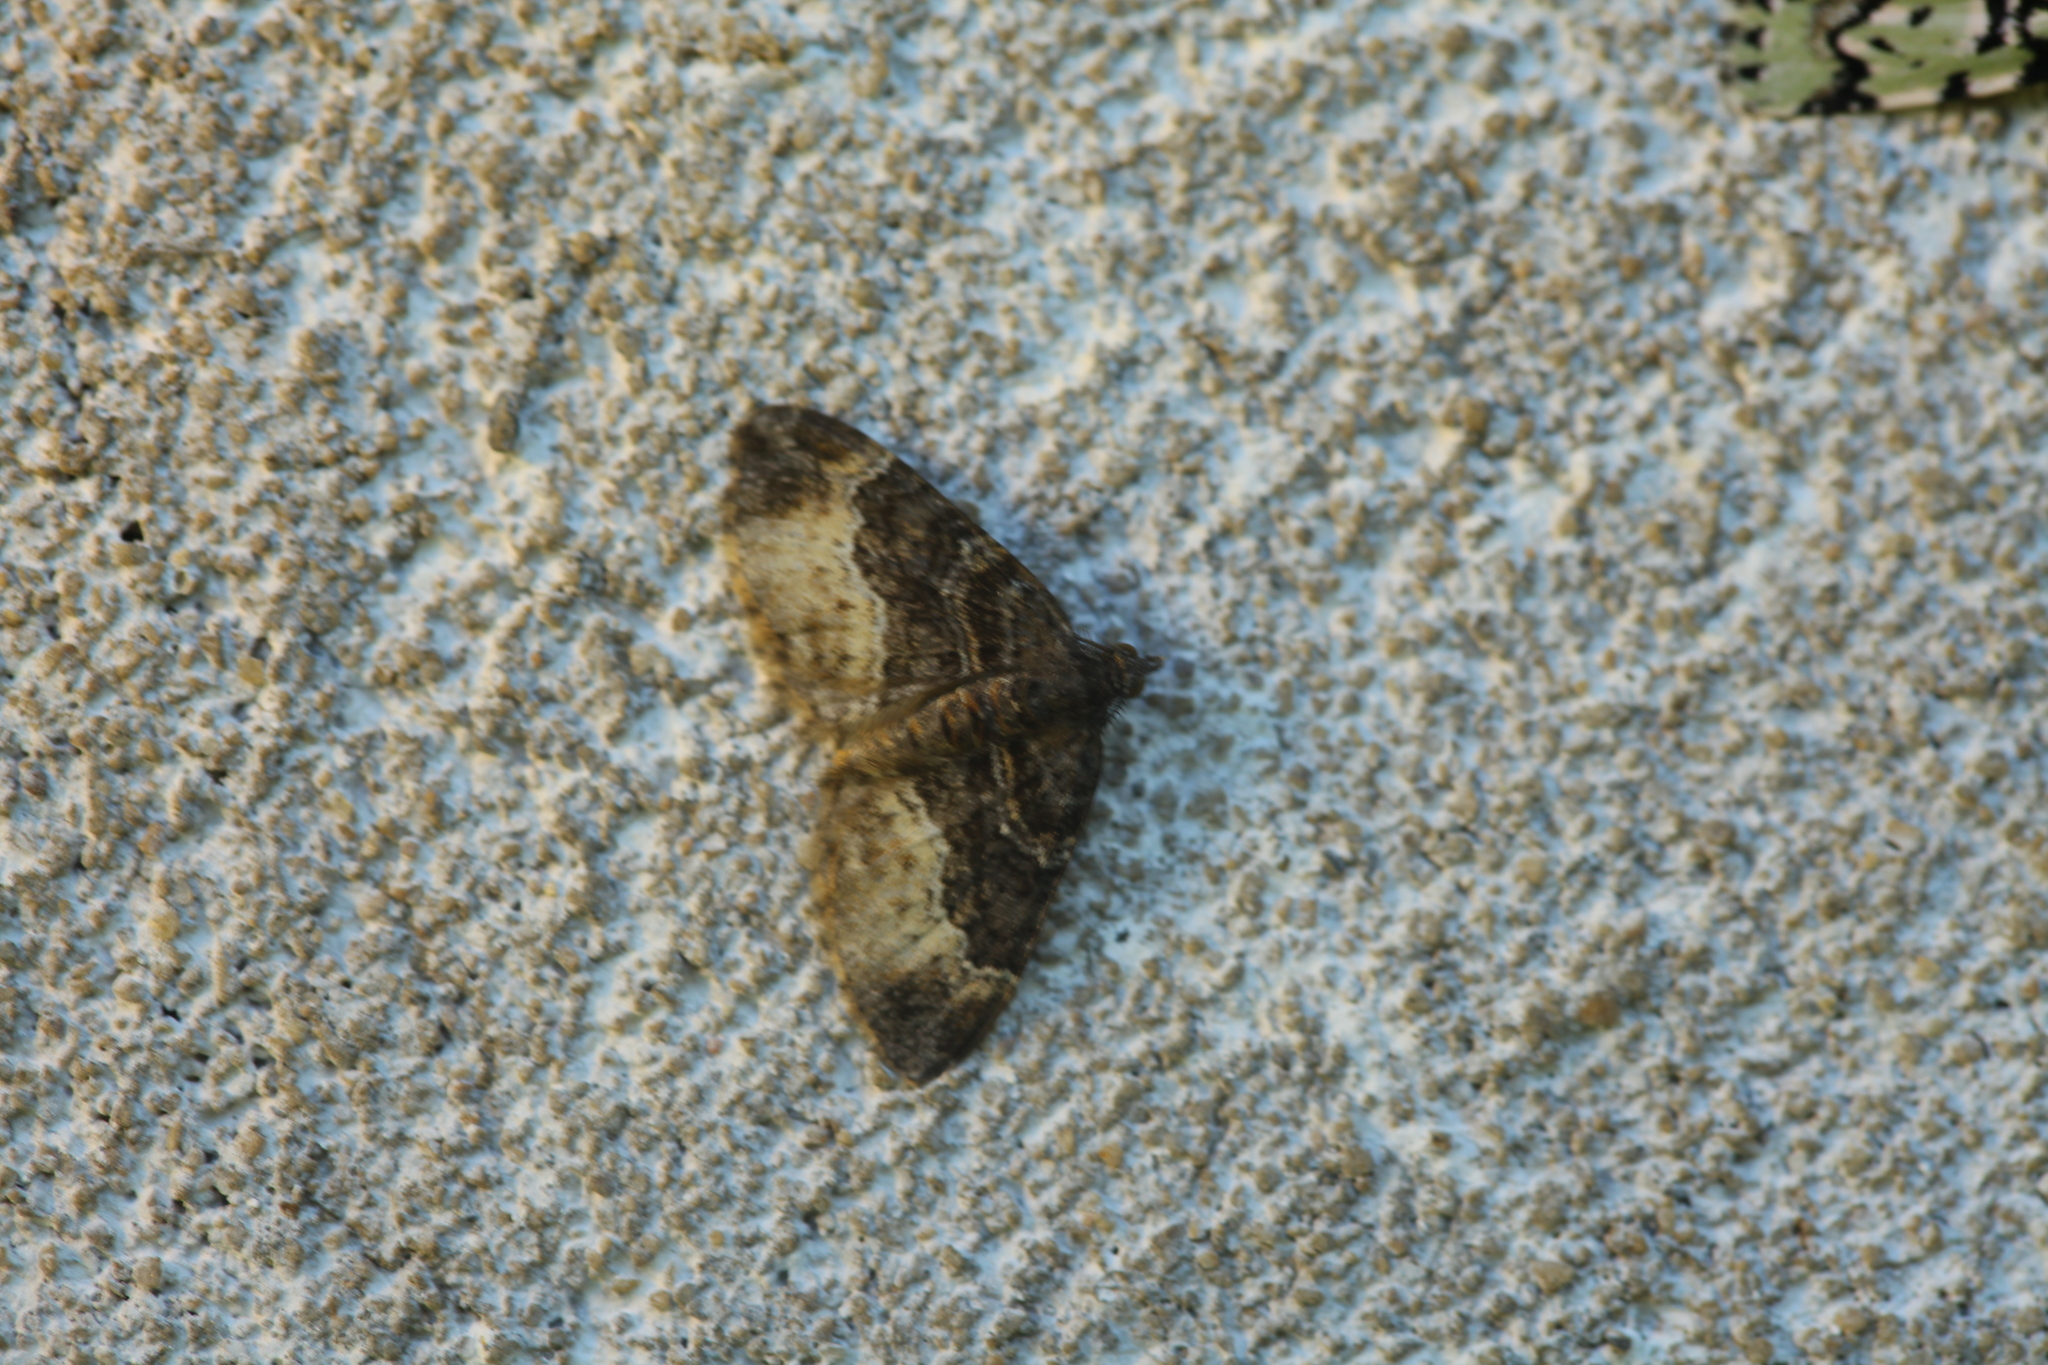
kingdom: Animalia
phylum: Arthropoda
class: Insecta
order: Lepidoptera
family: Geometridae
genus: Xanthorhoe
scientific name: Xanthorhoe muscicapata
